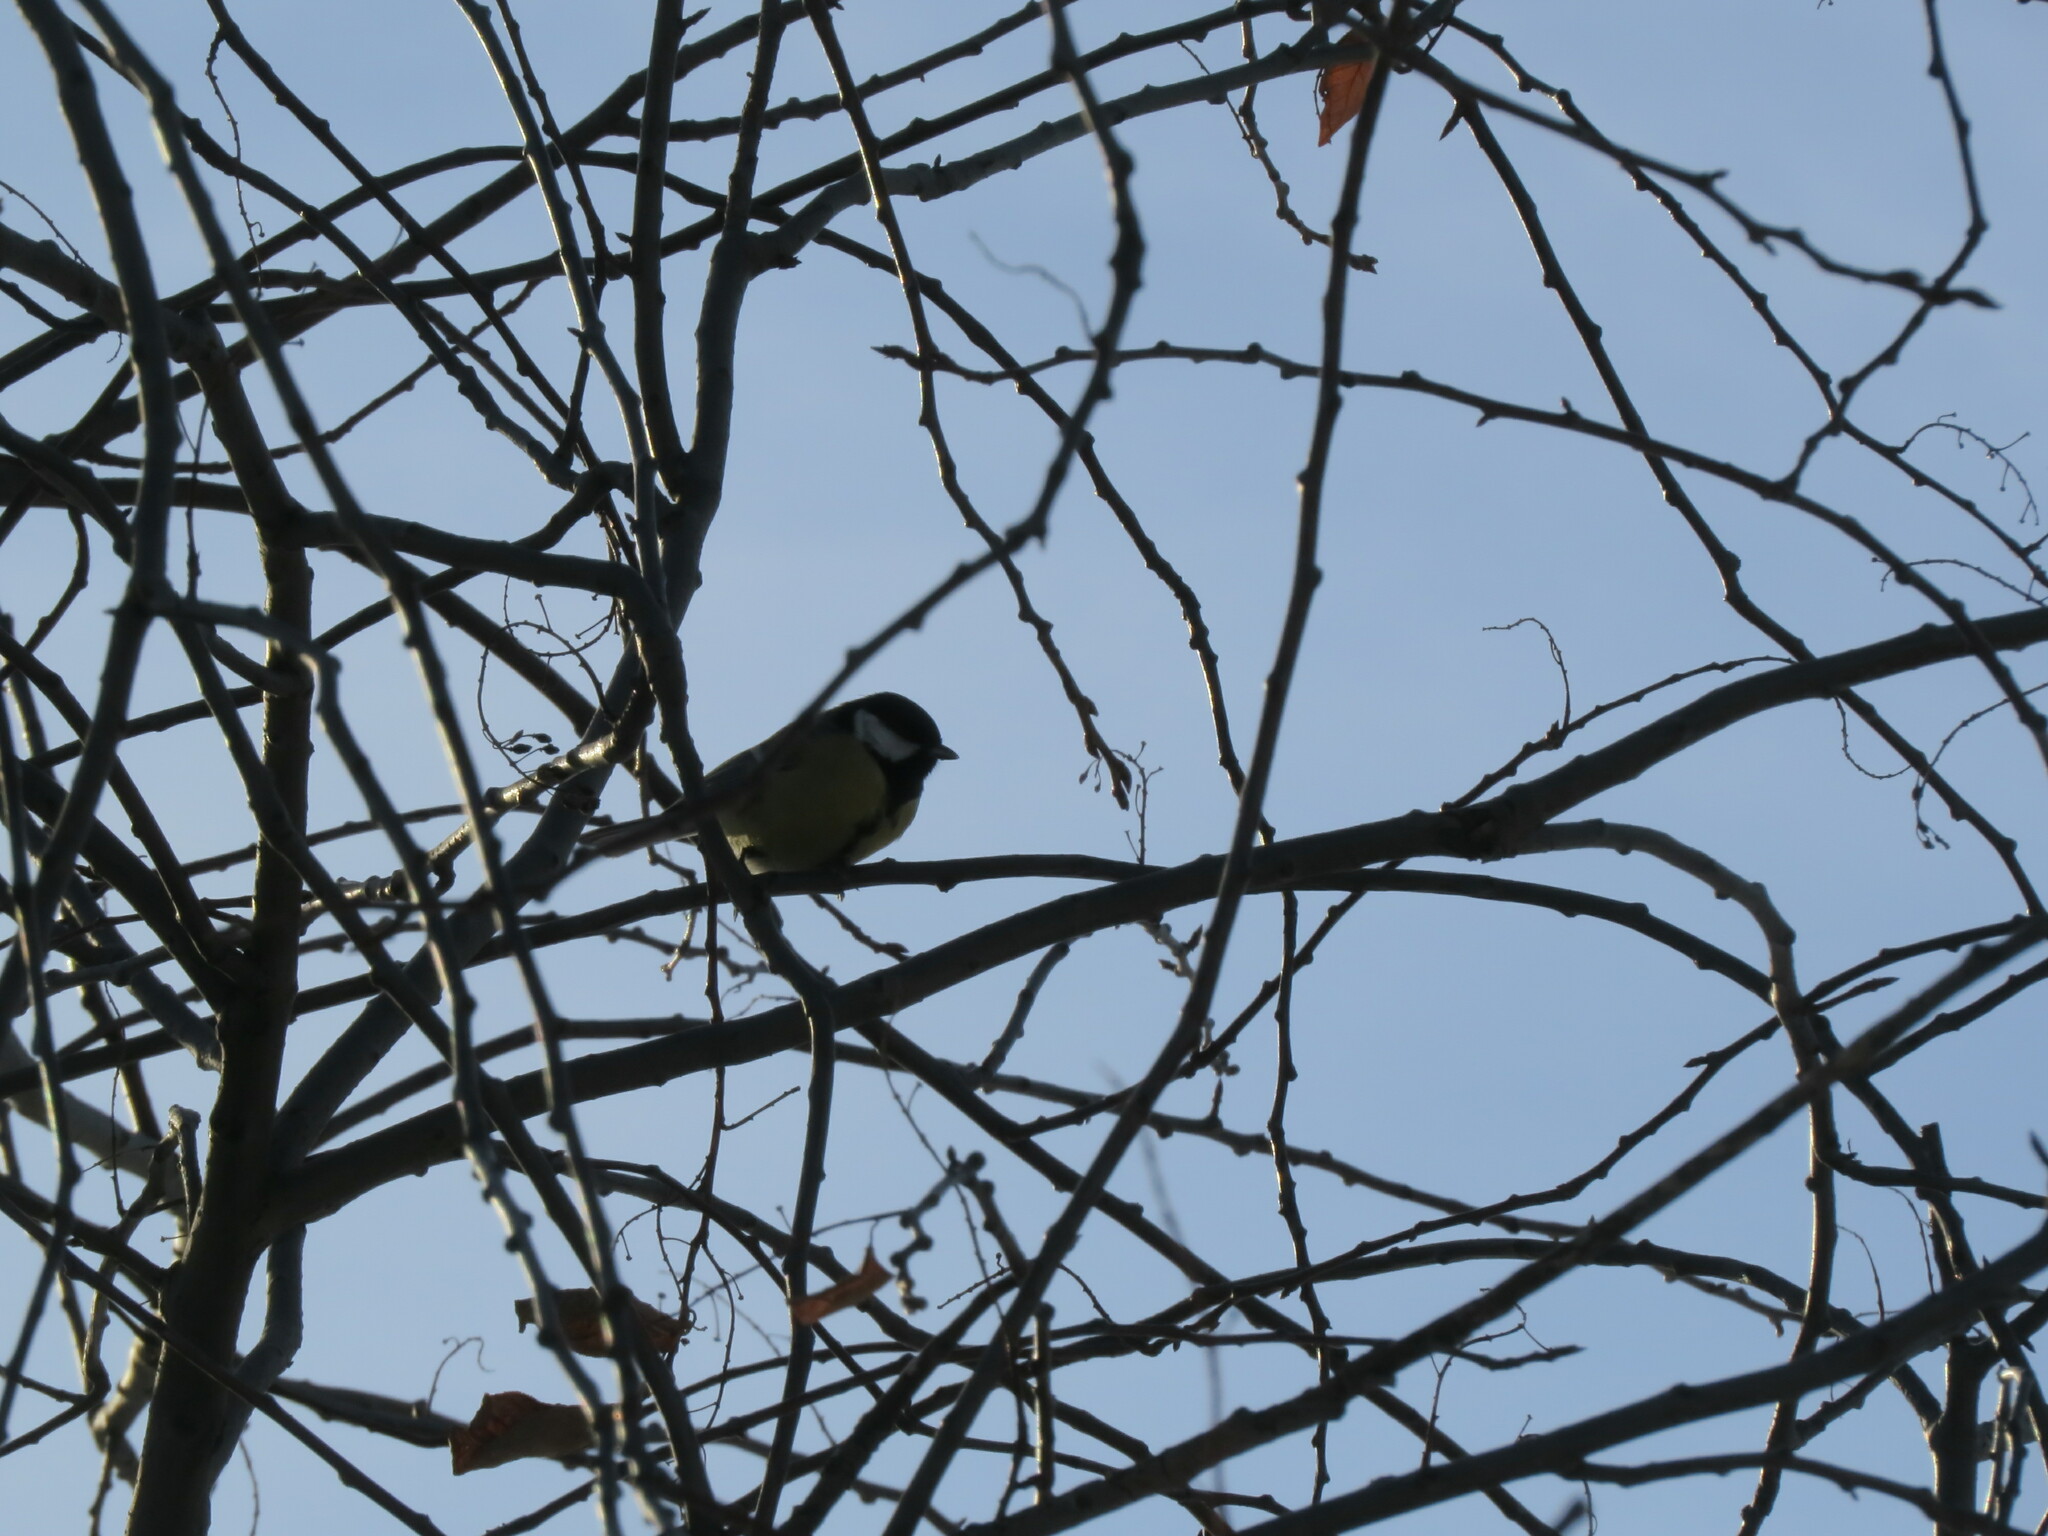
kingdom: Animalia
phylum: Chordata
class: Aves
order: Passeriformes
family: Paridae
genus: Parus
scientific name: Parus major
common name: Great tit
